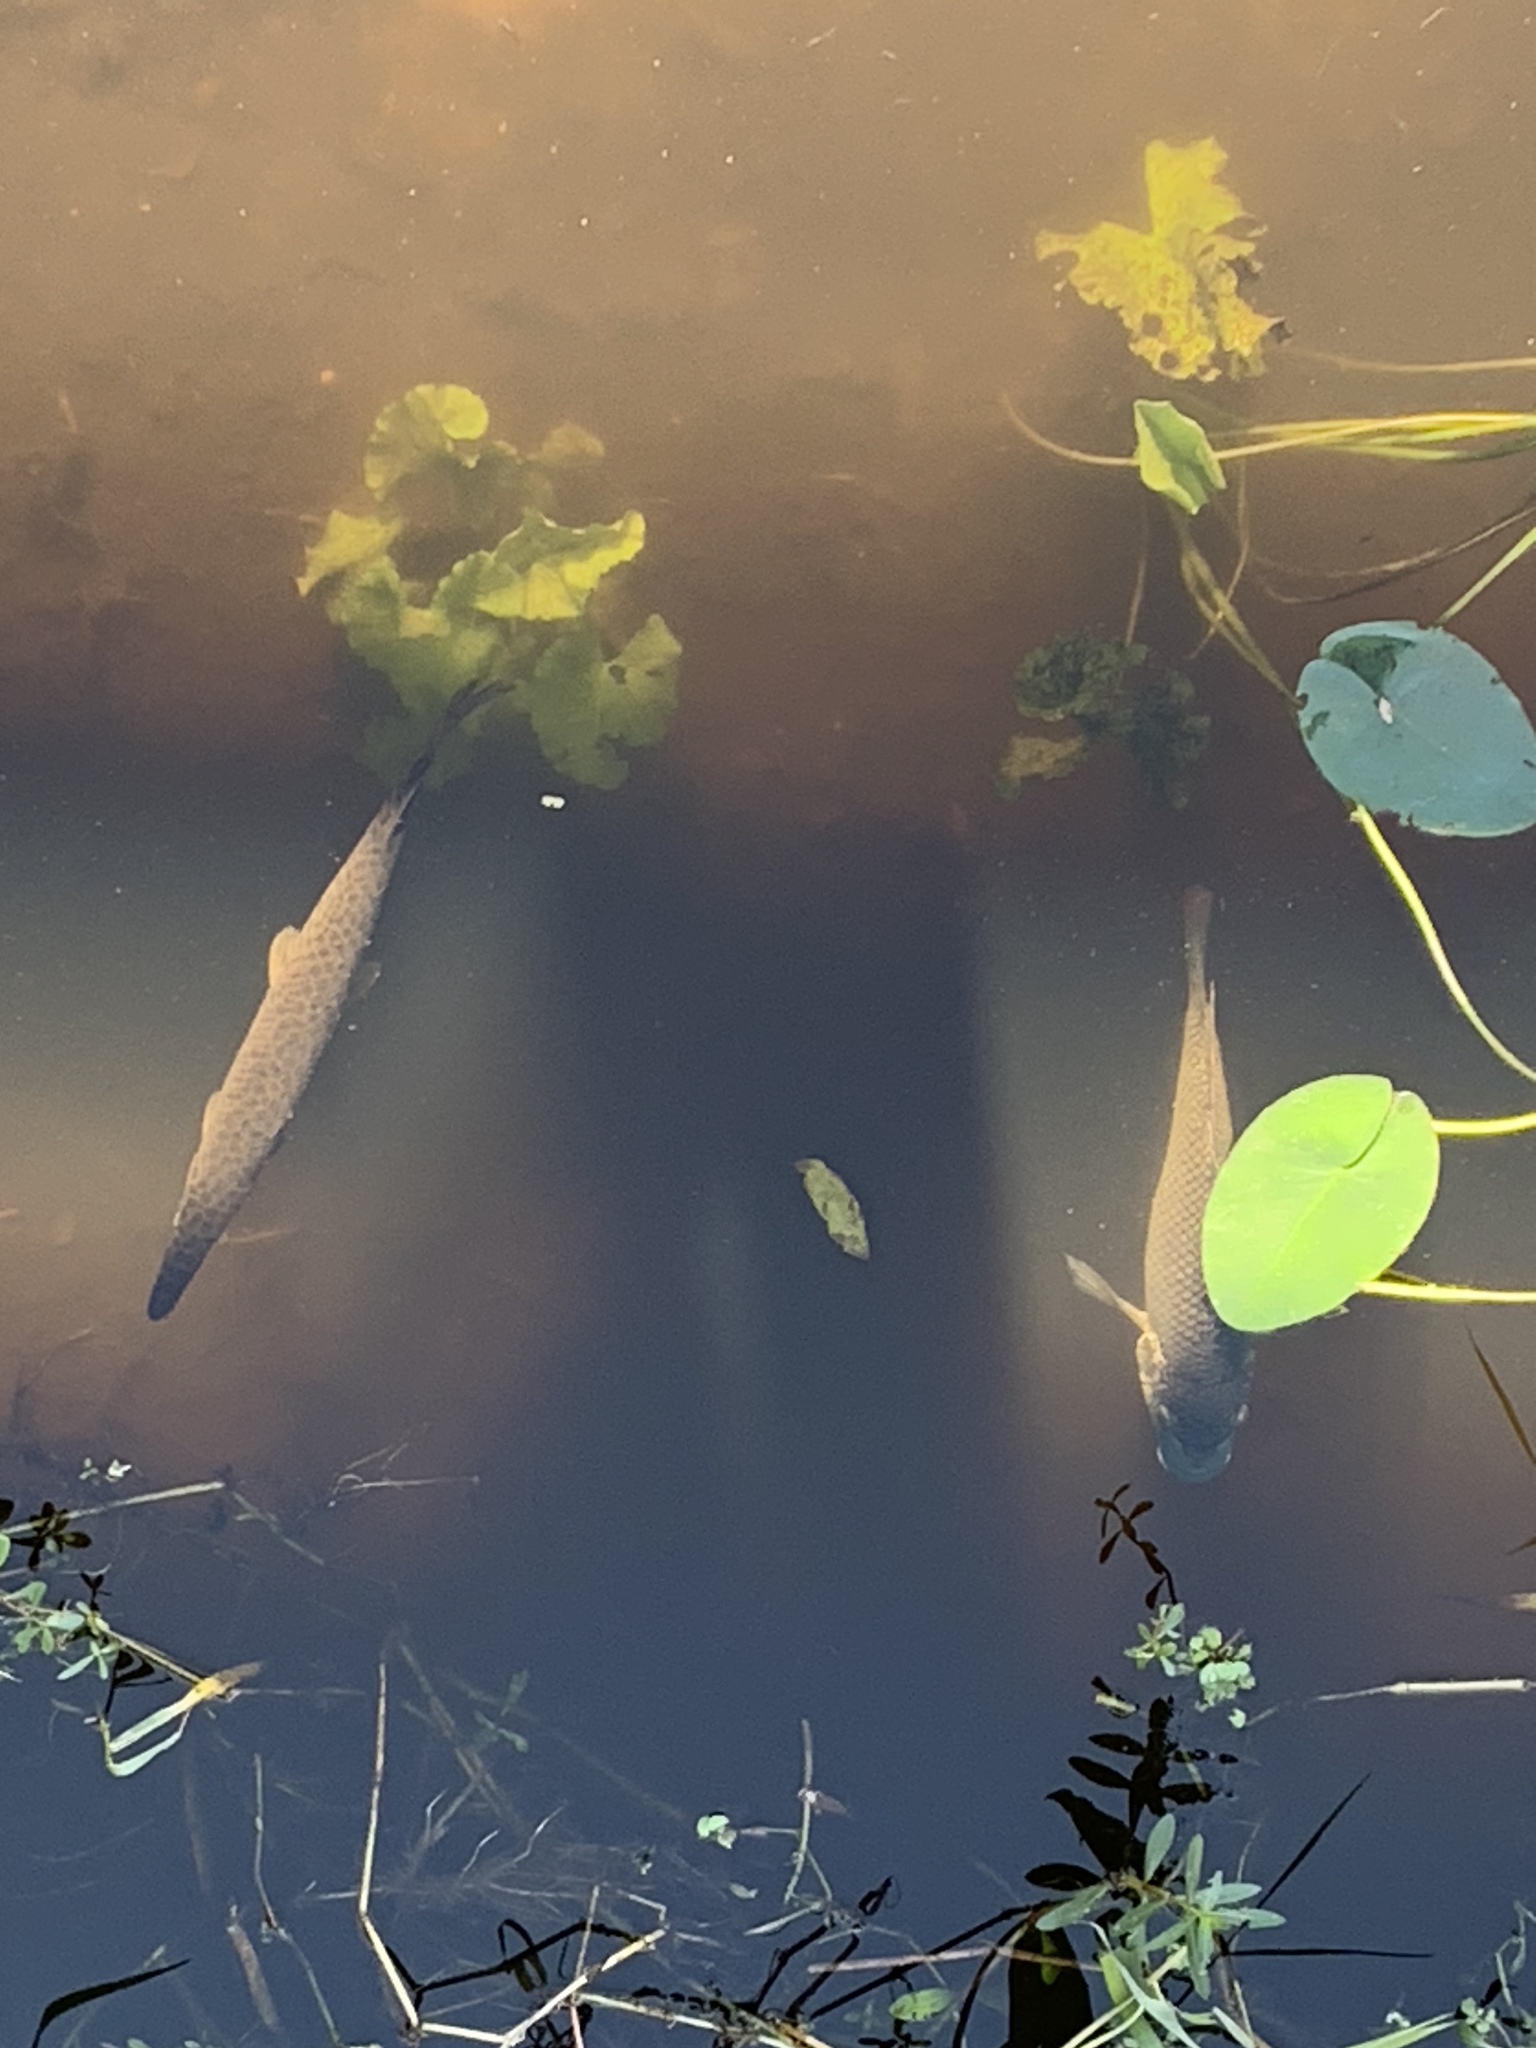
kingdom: Animalia
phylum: Chordata
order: Lepisosteiformes
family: Lepisosteidae
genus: Lepisosteus
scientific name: Lepisosteus platyrhincus
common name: Florida gar
